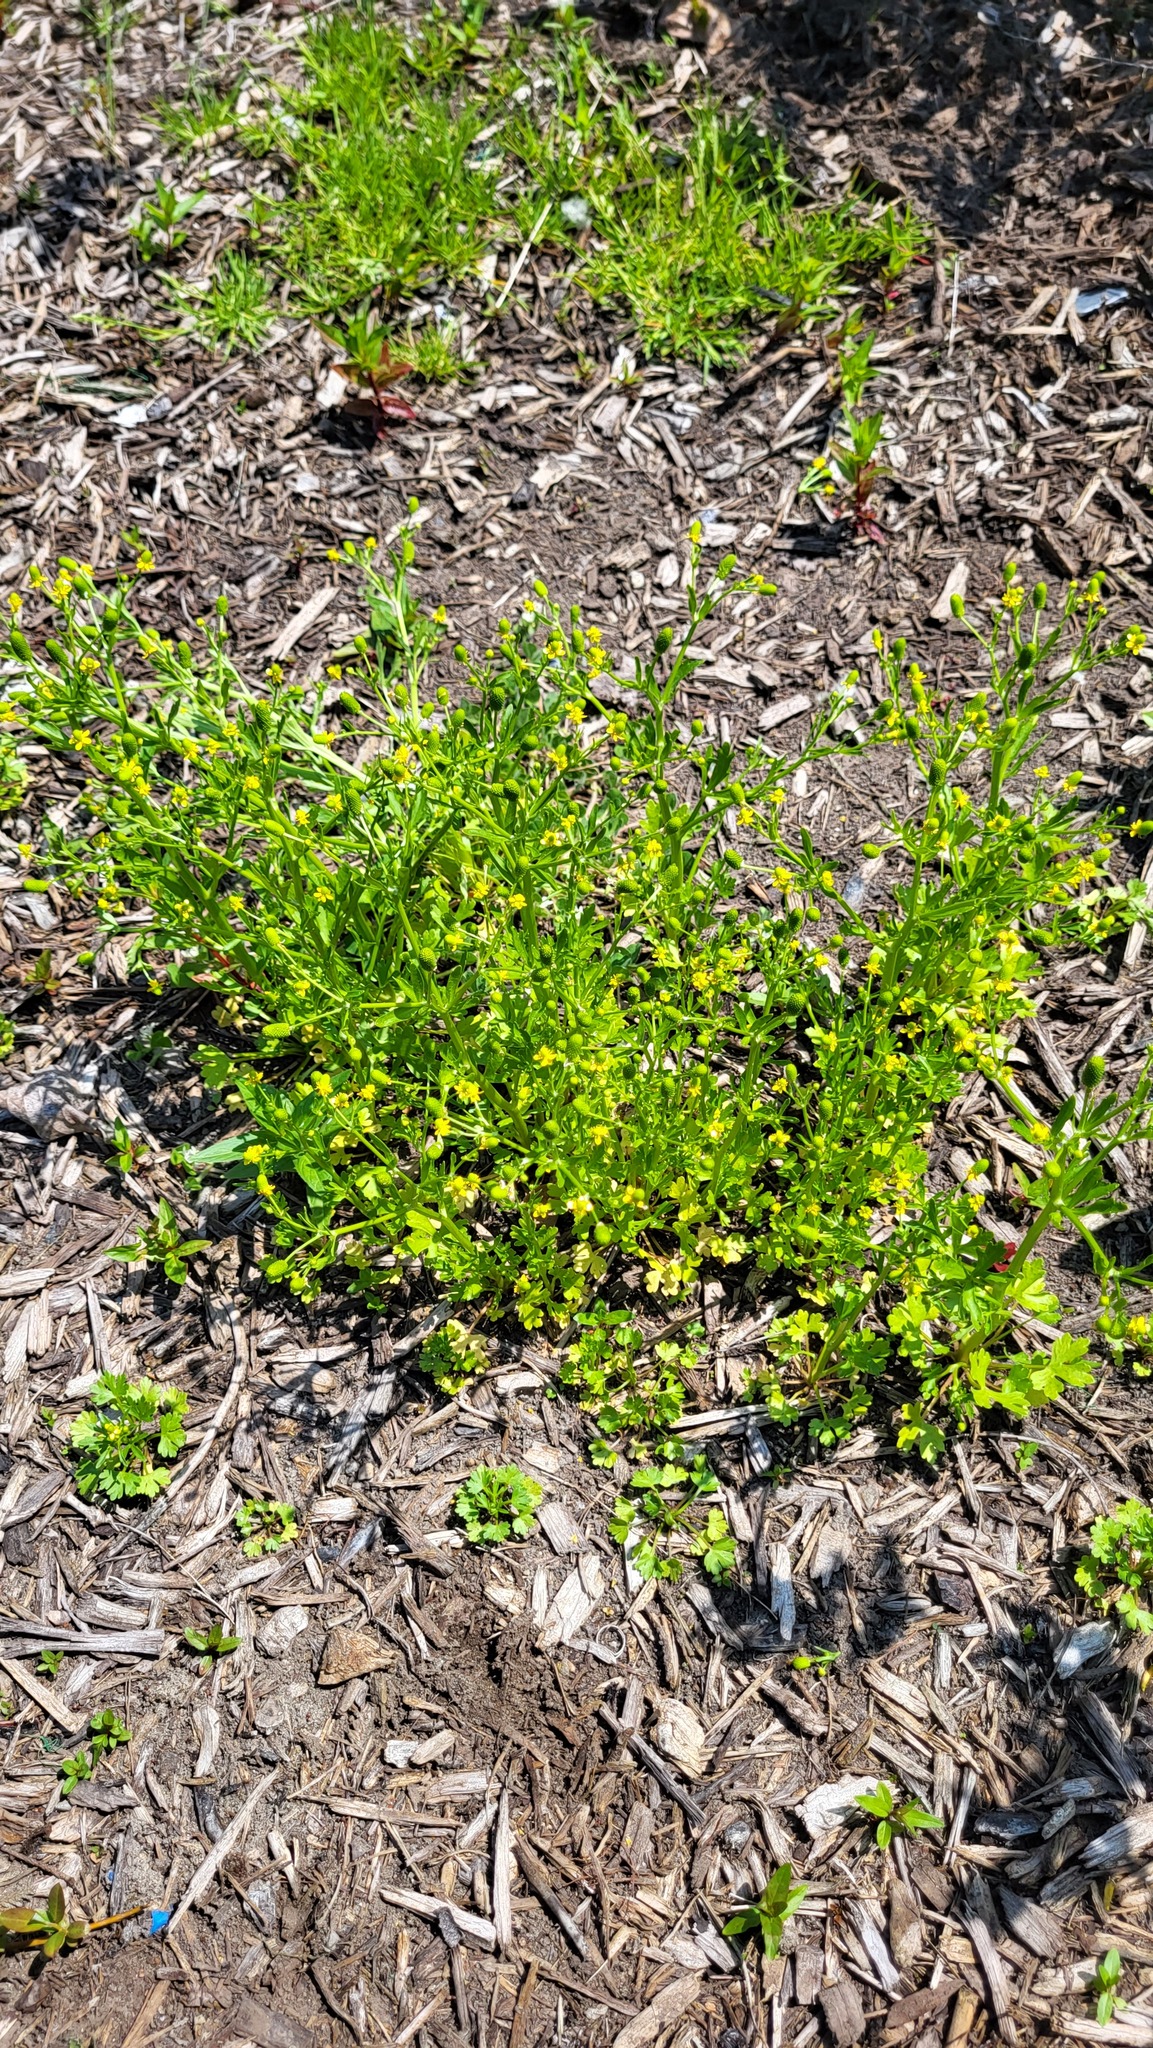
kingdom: Plantae
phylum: Tracheophyta
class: Magnoliopsida
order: Asterales
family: Asteraceae
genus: Matricaria
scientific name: Matricaria discoidea
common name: Disc mayweed
